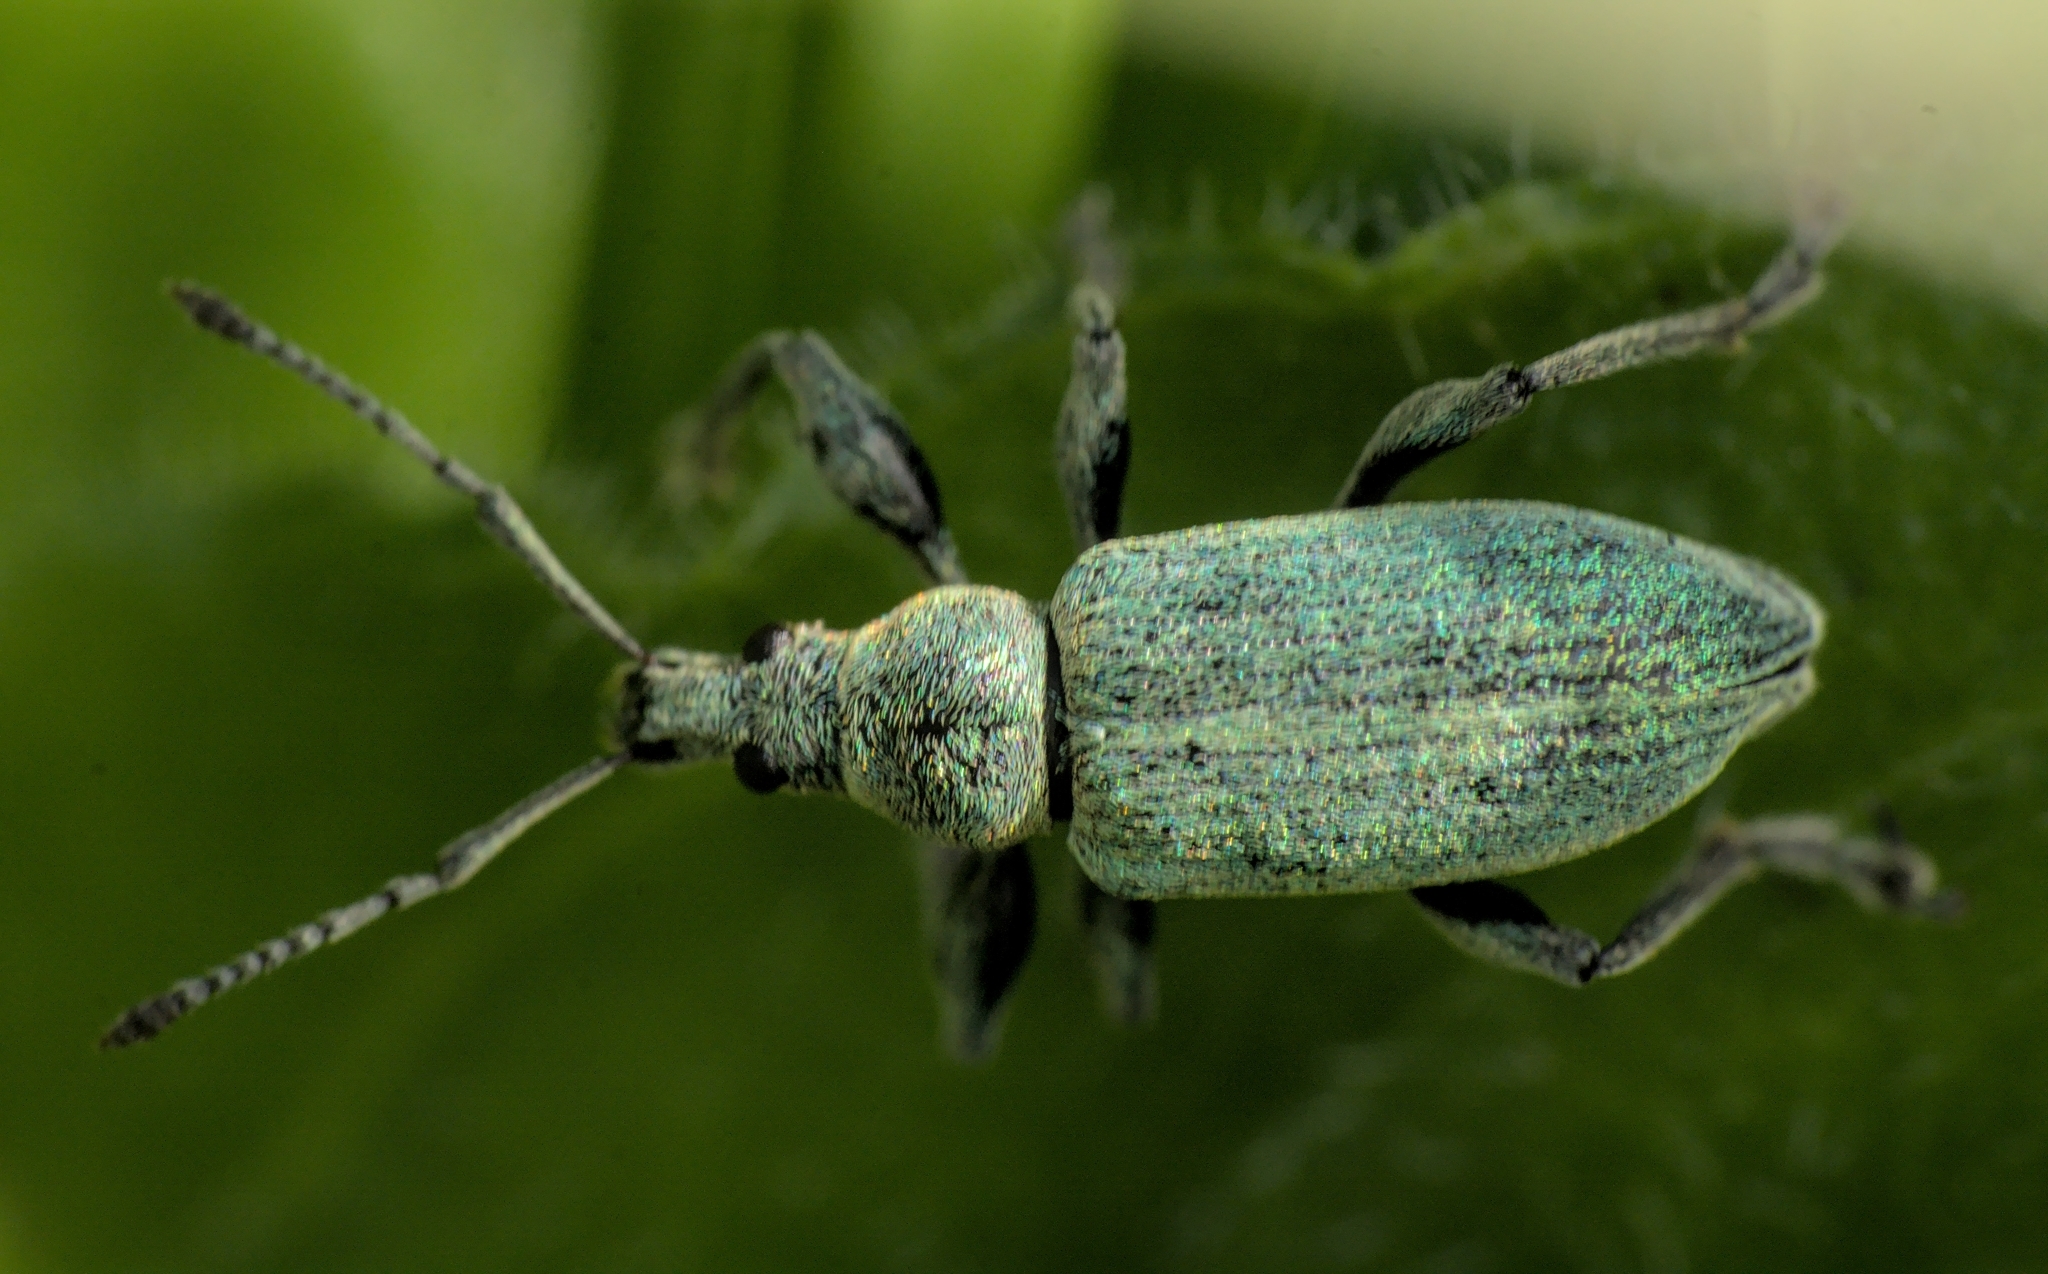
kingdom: Animalia
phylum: Arthropoda
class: Insecta
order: Coleoptera
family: Curculionidae
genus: Phyllobius
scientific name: Phyllobius pomaceus
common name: Green nettle weevil
